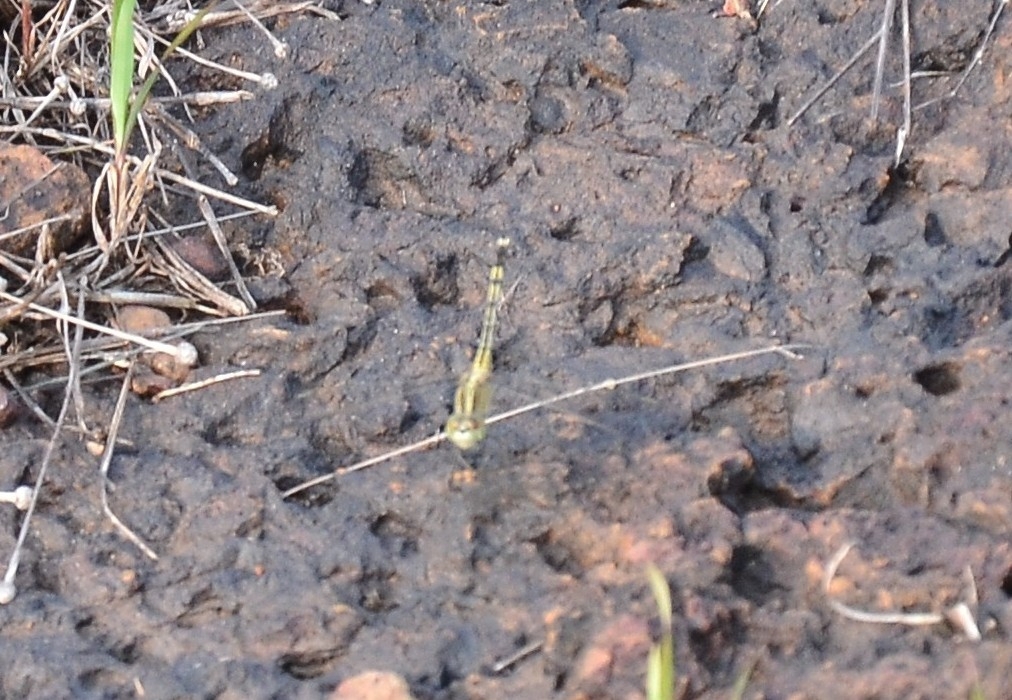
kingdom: Animalia
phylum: Arthropoda
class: Insecta
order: Odonata
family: Libellulidae
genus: Diplacodes
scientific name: Diplacodes trivialis
